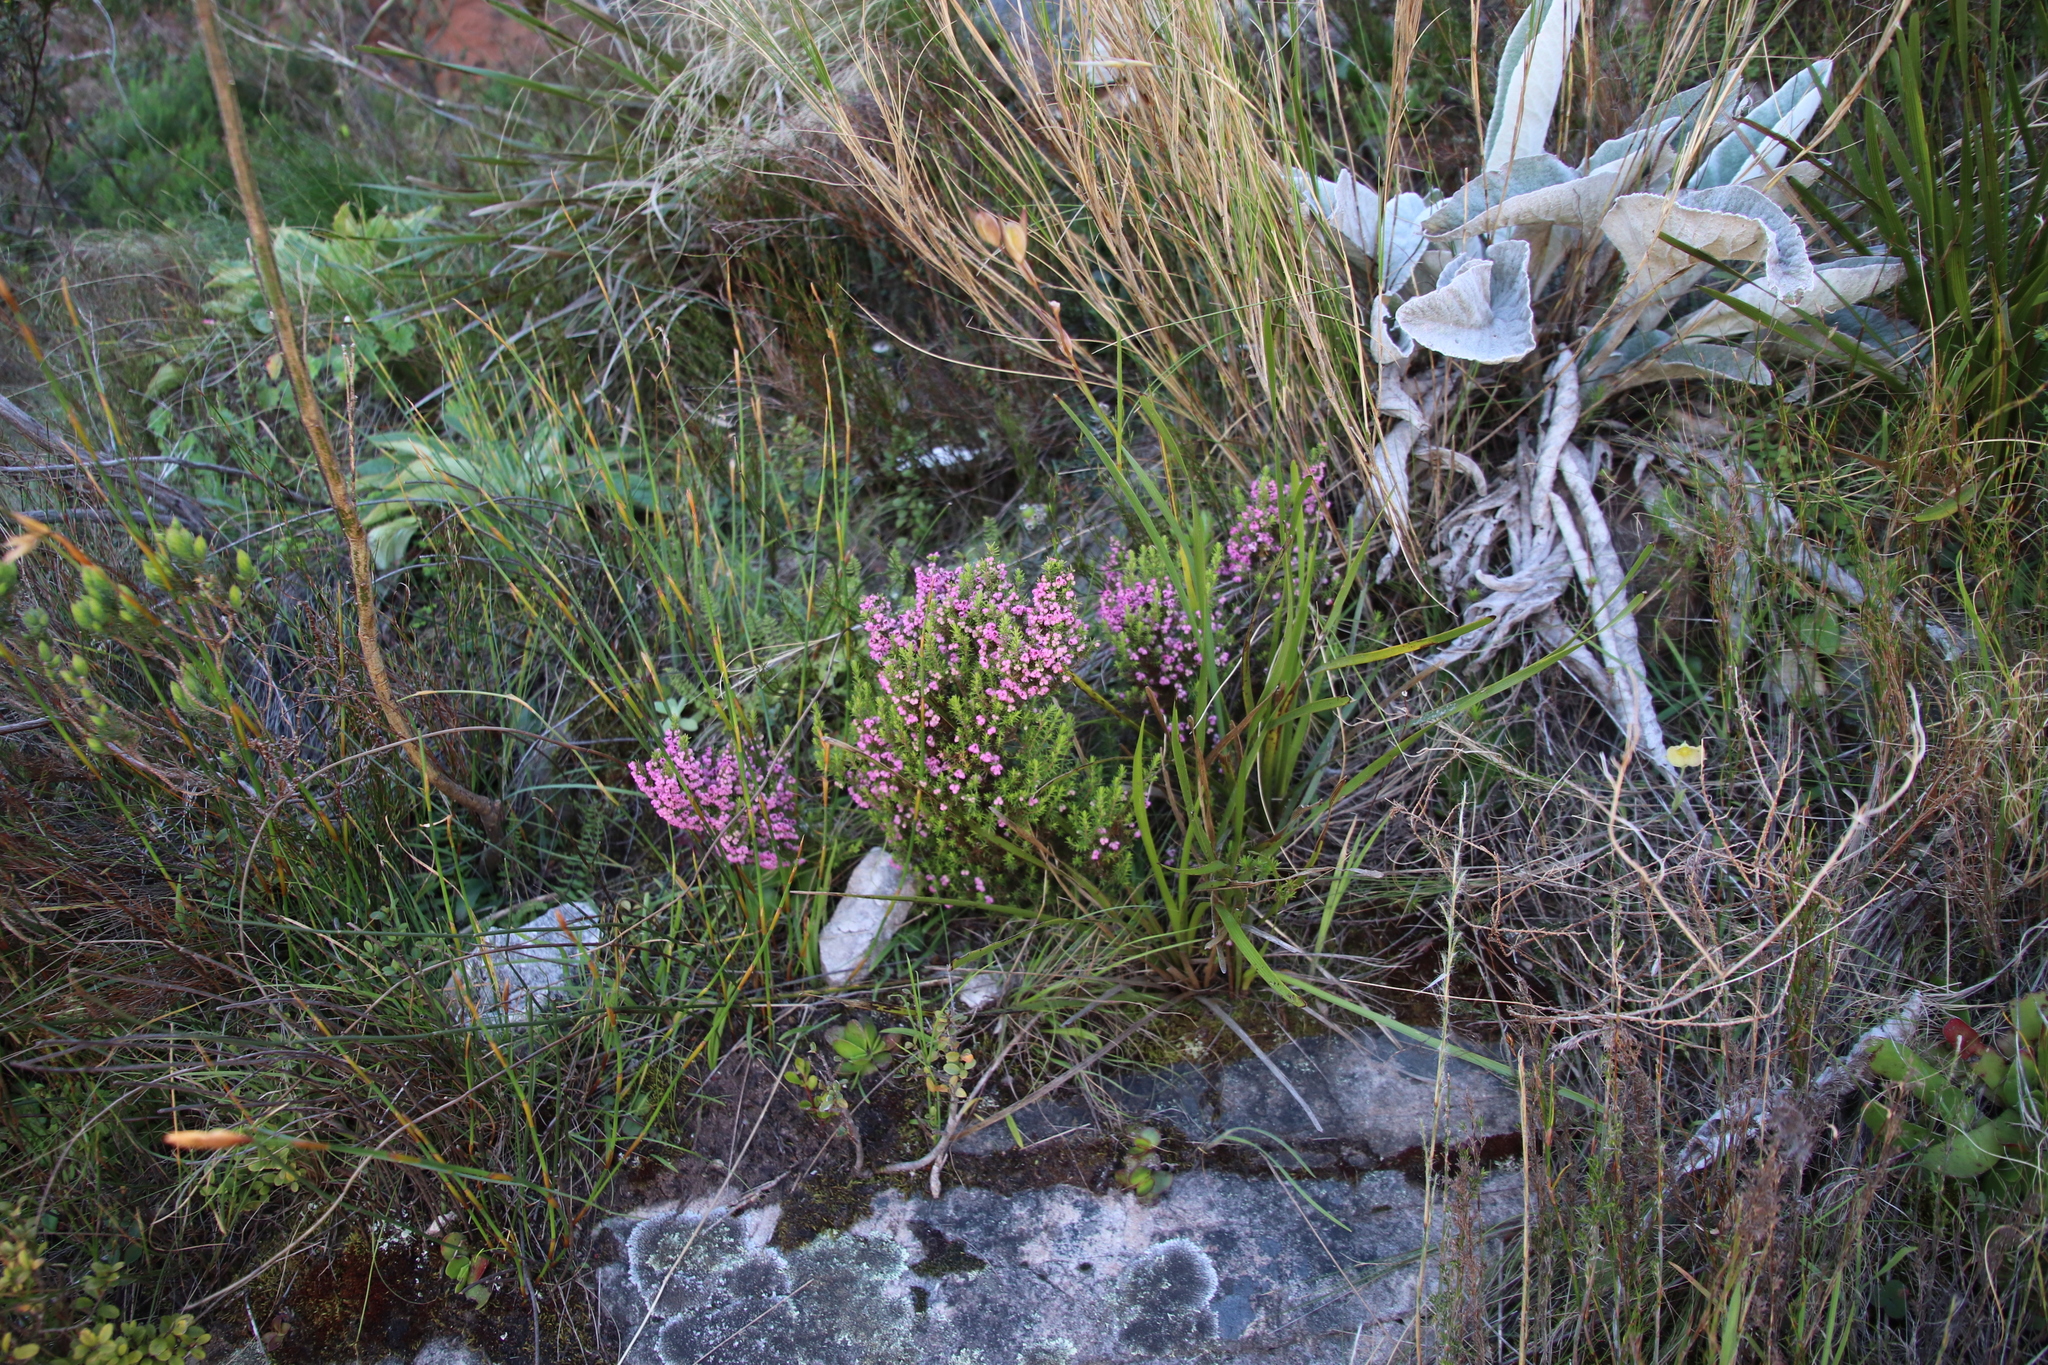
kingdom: Plantae
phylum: Tracheophyta
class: Magnoliopsida
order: Ericales
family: Ericaceae
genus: Erica
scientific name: Erica cristiflora
